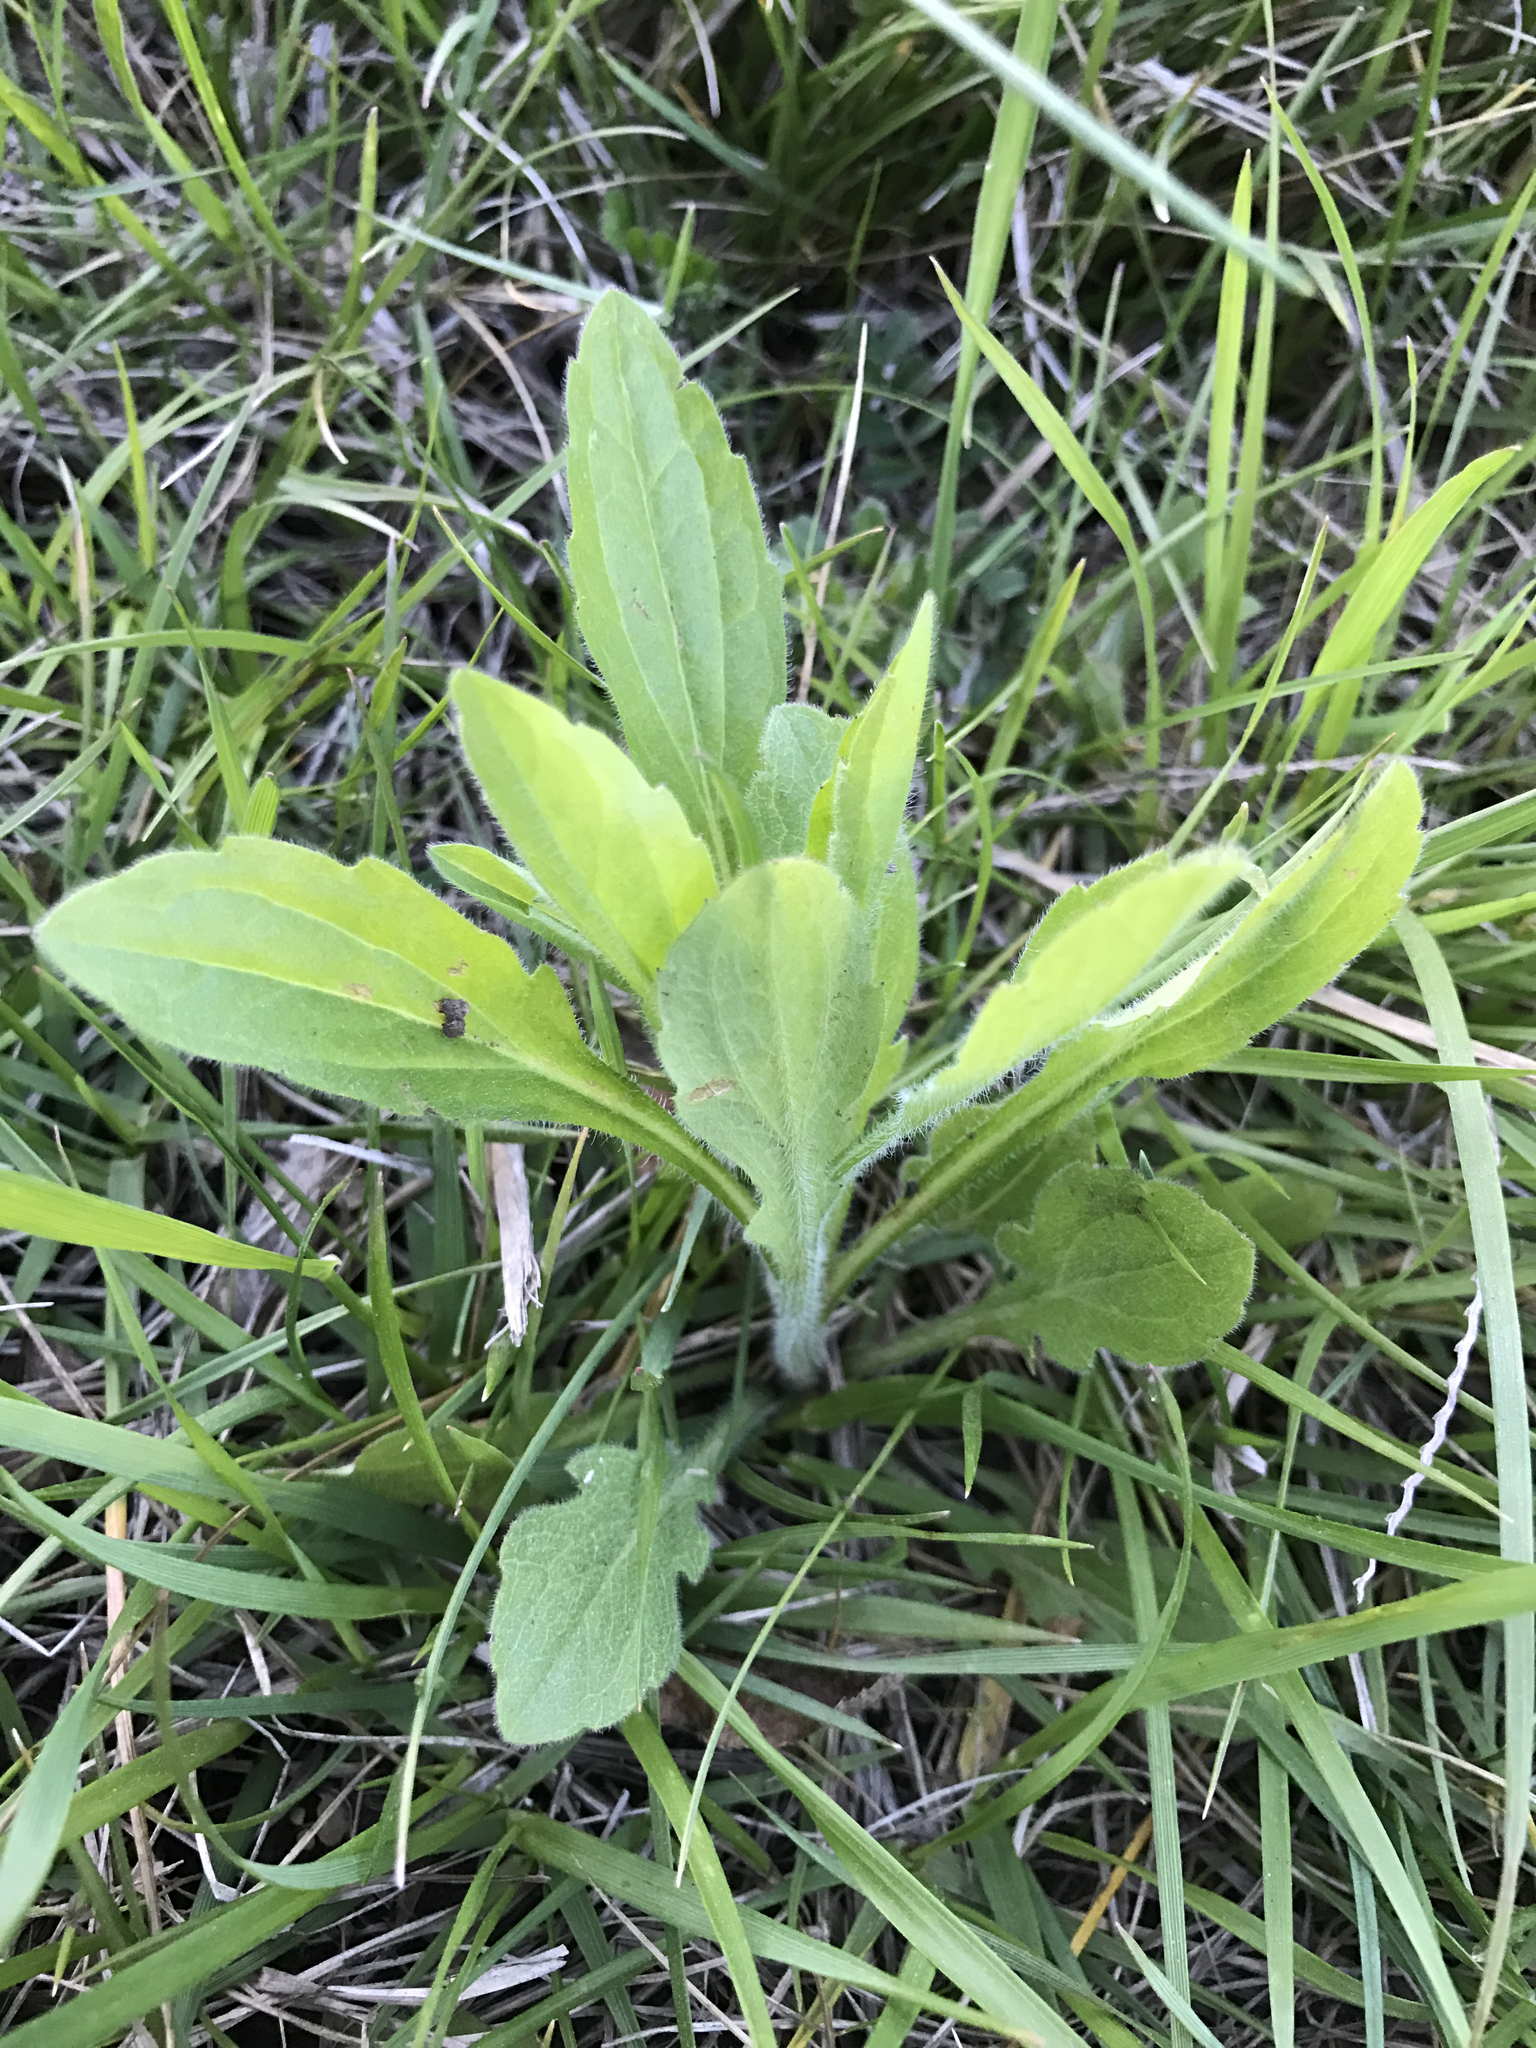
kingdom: Plantae
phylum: Tracheophyta
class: Magnoliopsida
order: Asterales
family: Asteraceae
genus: Erigeron
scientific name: Erigeron canadensis
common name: Canadian fleabane
